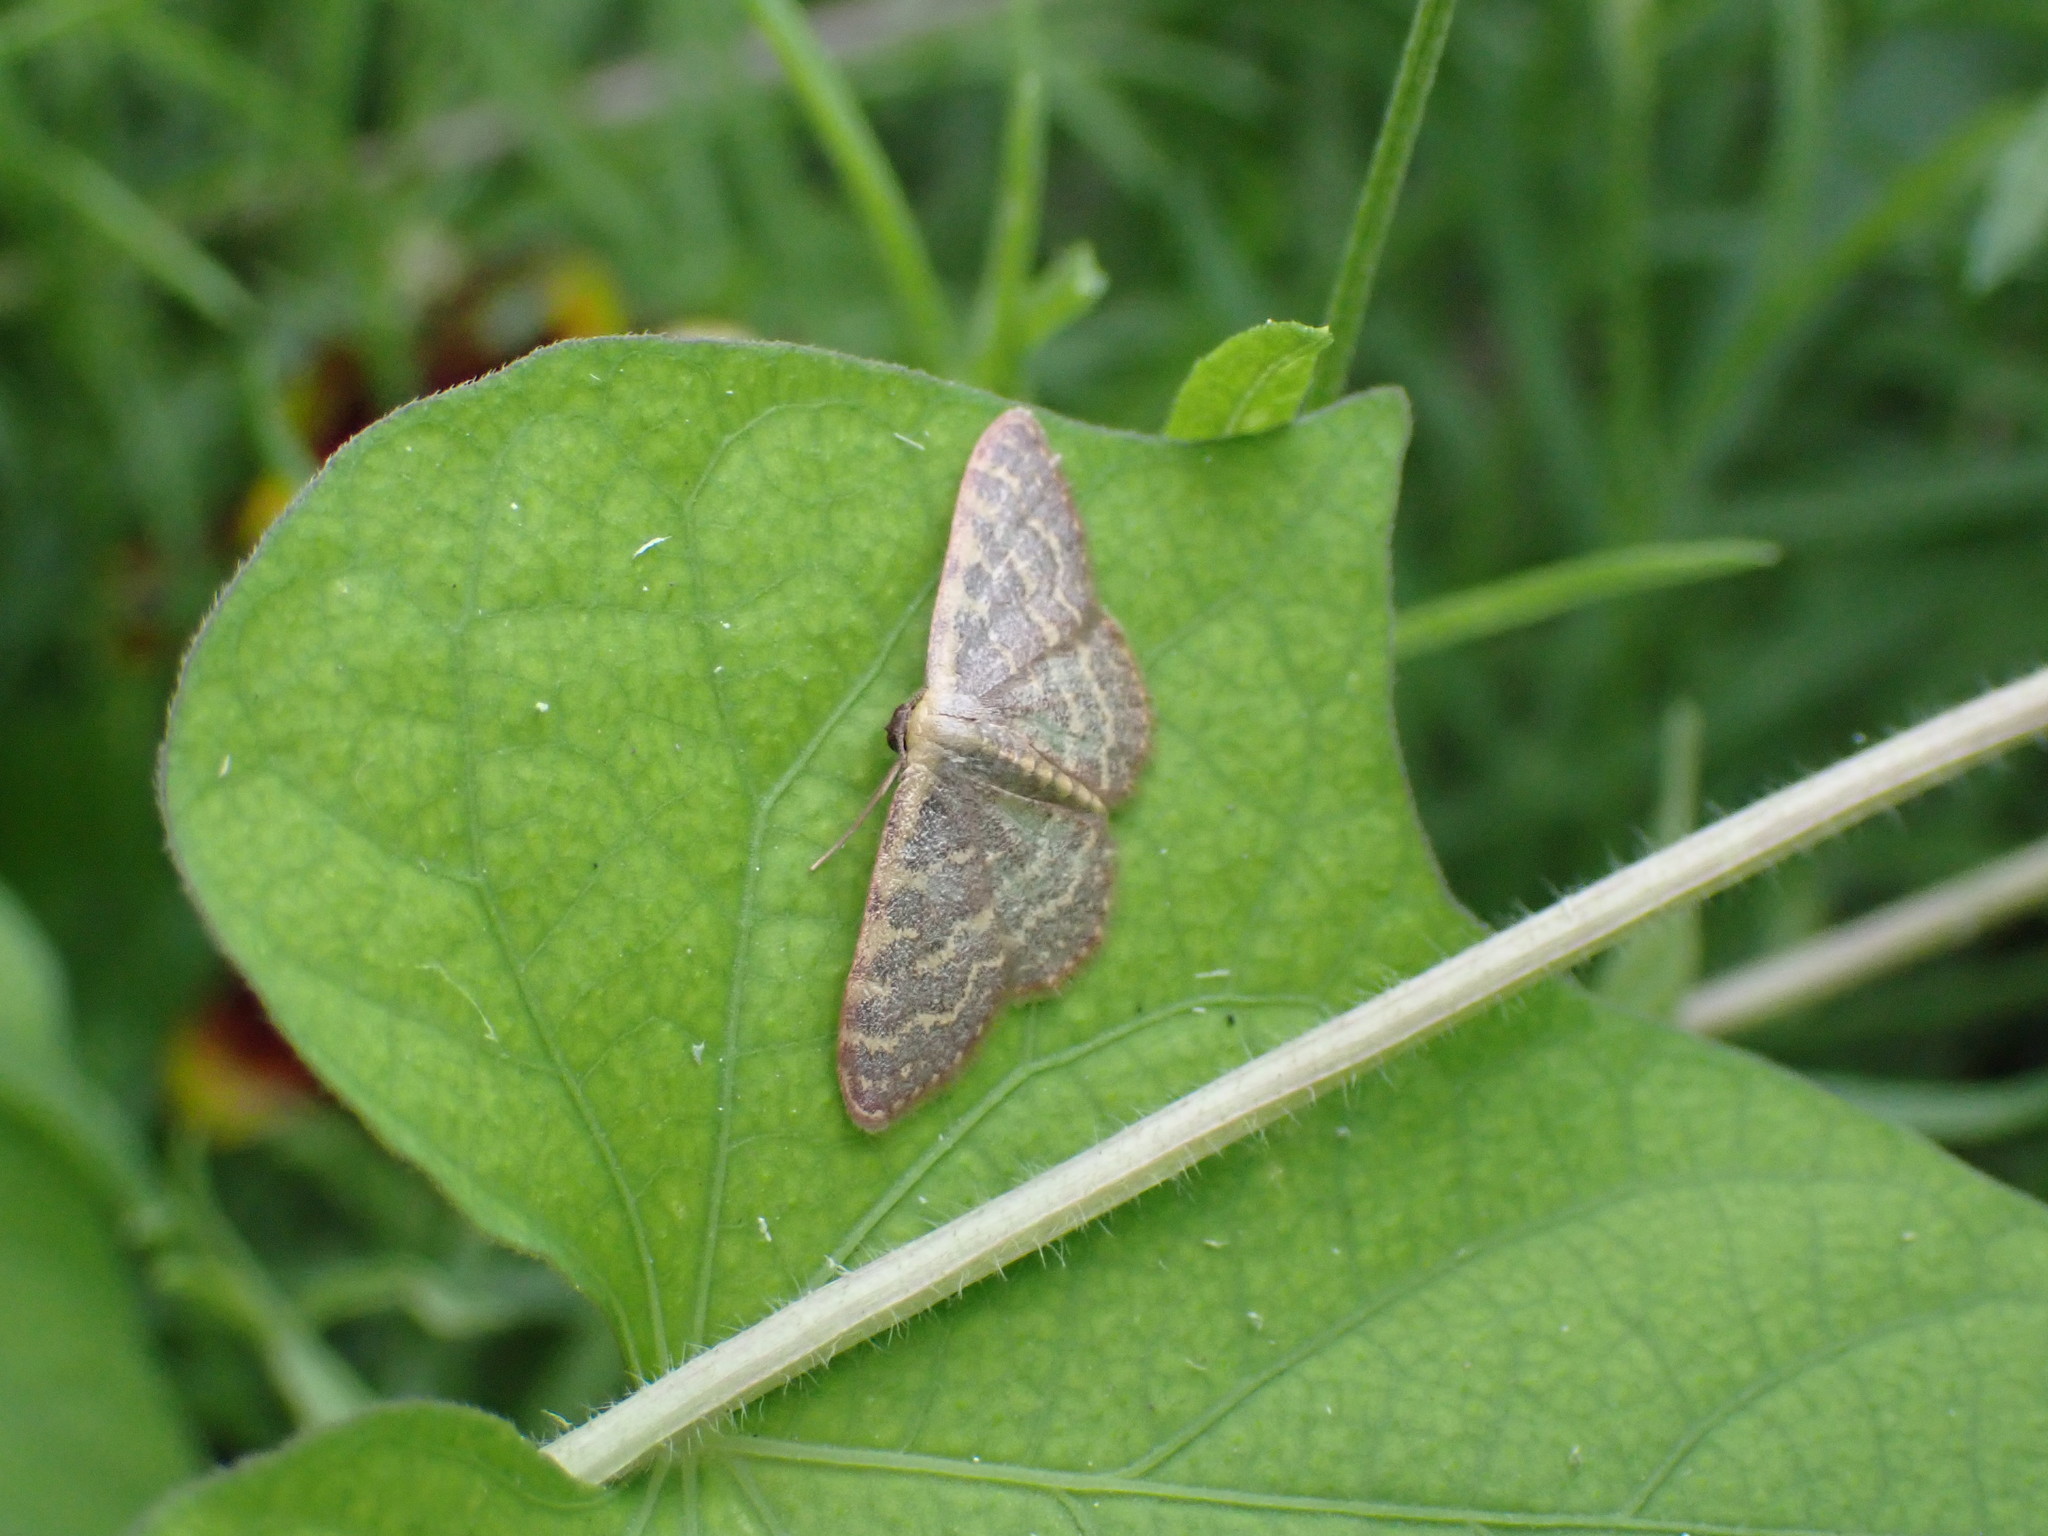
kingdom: Animalia
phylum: Arthropoda
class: Insecta
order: Lepidoptera
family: Geometridae
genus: Leptostales
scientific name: Leptostales pannaria
